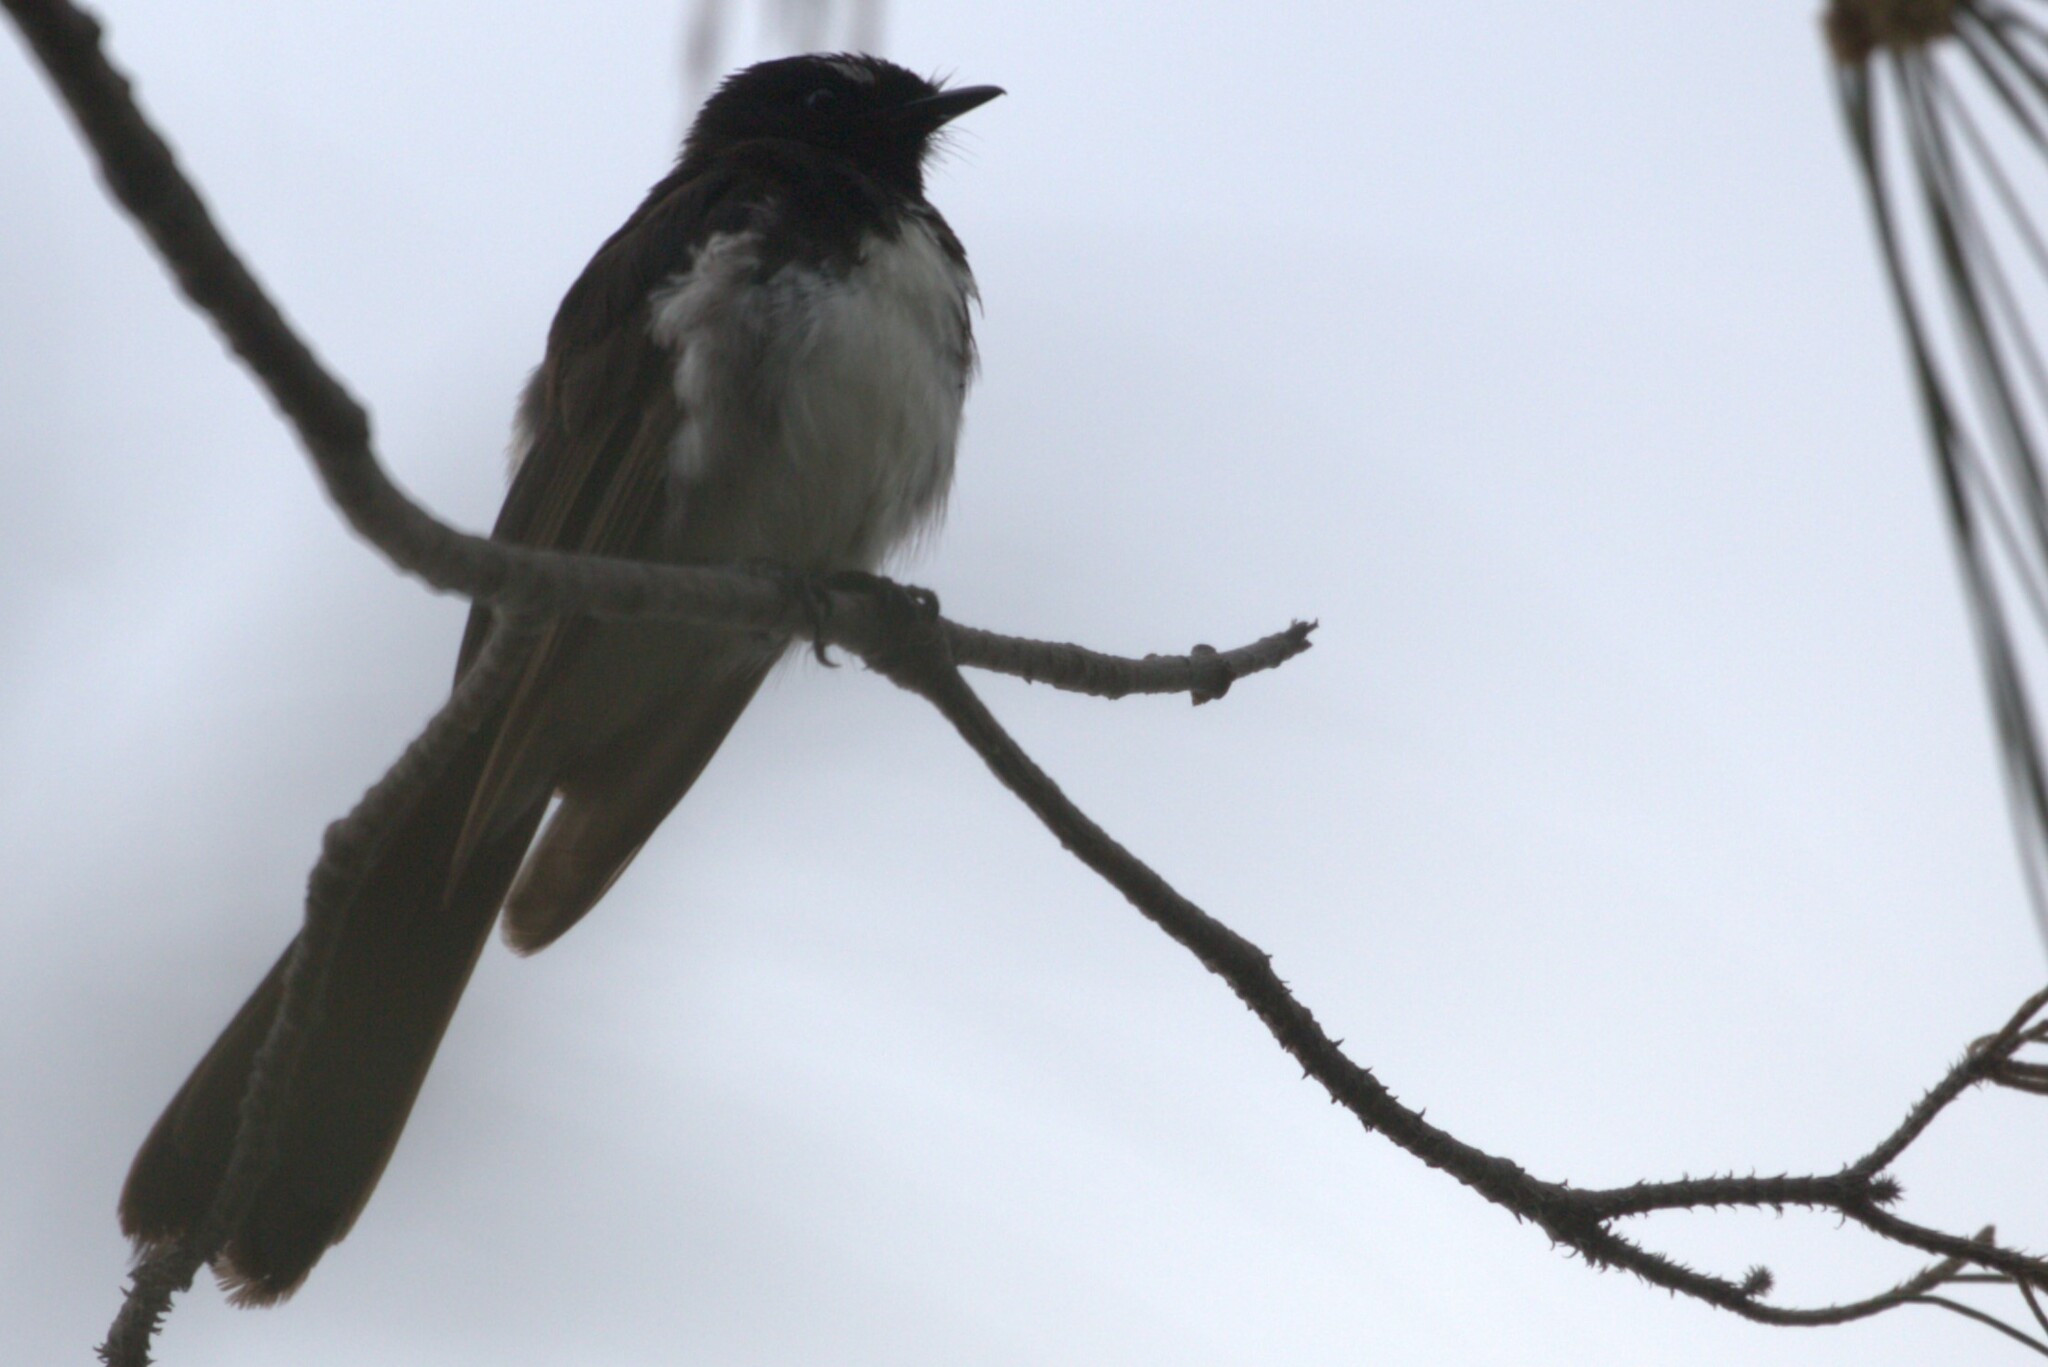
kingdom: Animalia
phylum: Chordata
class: Aves
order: Passeriformes
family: Rhipiduridae
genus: Rhipidura
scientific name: Rhipidura leucophrys
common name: Willie wagtail
